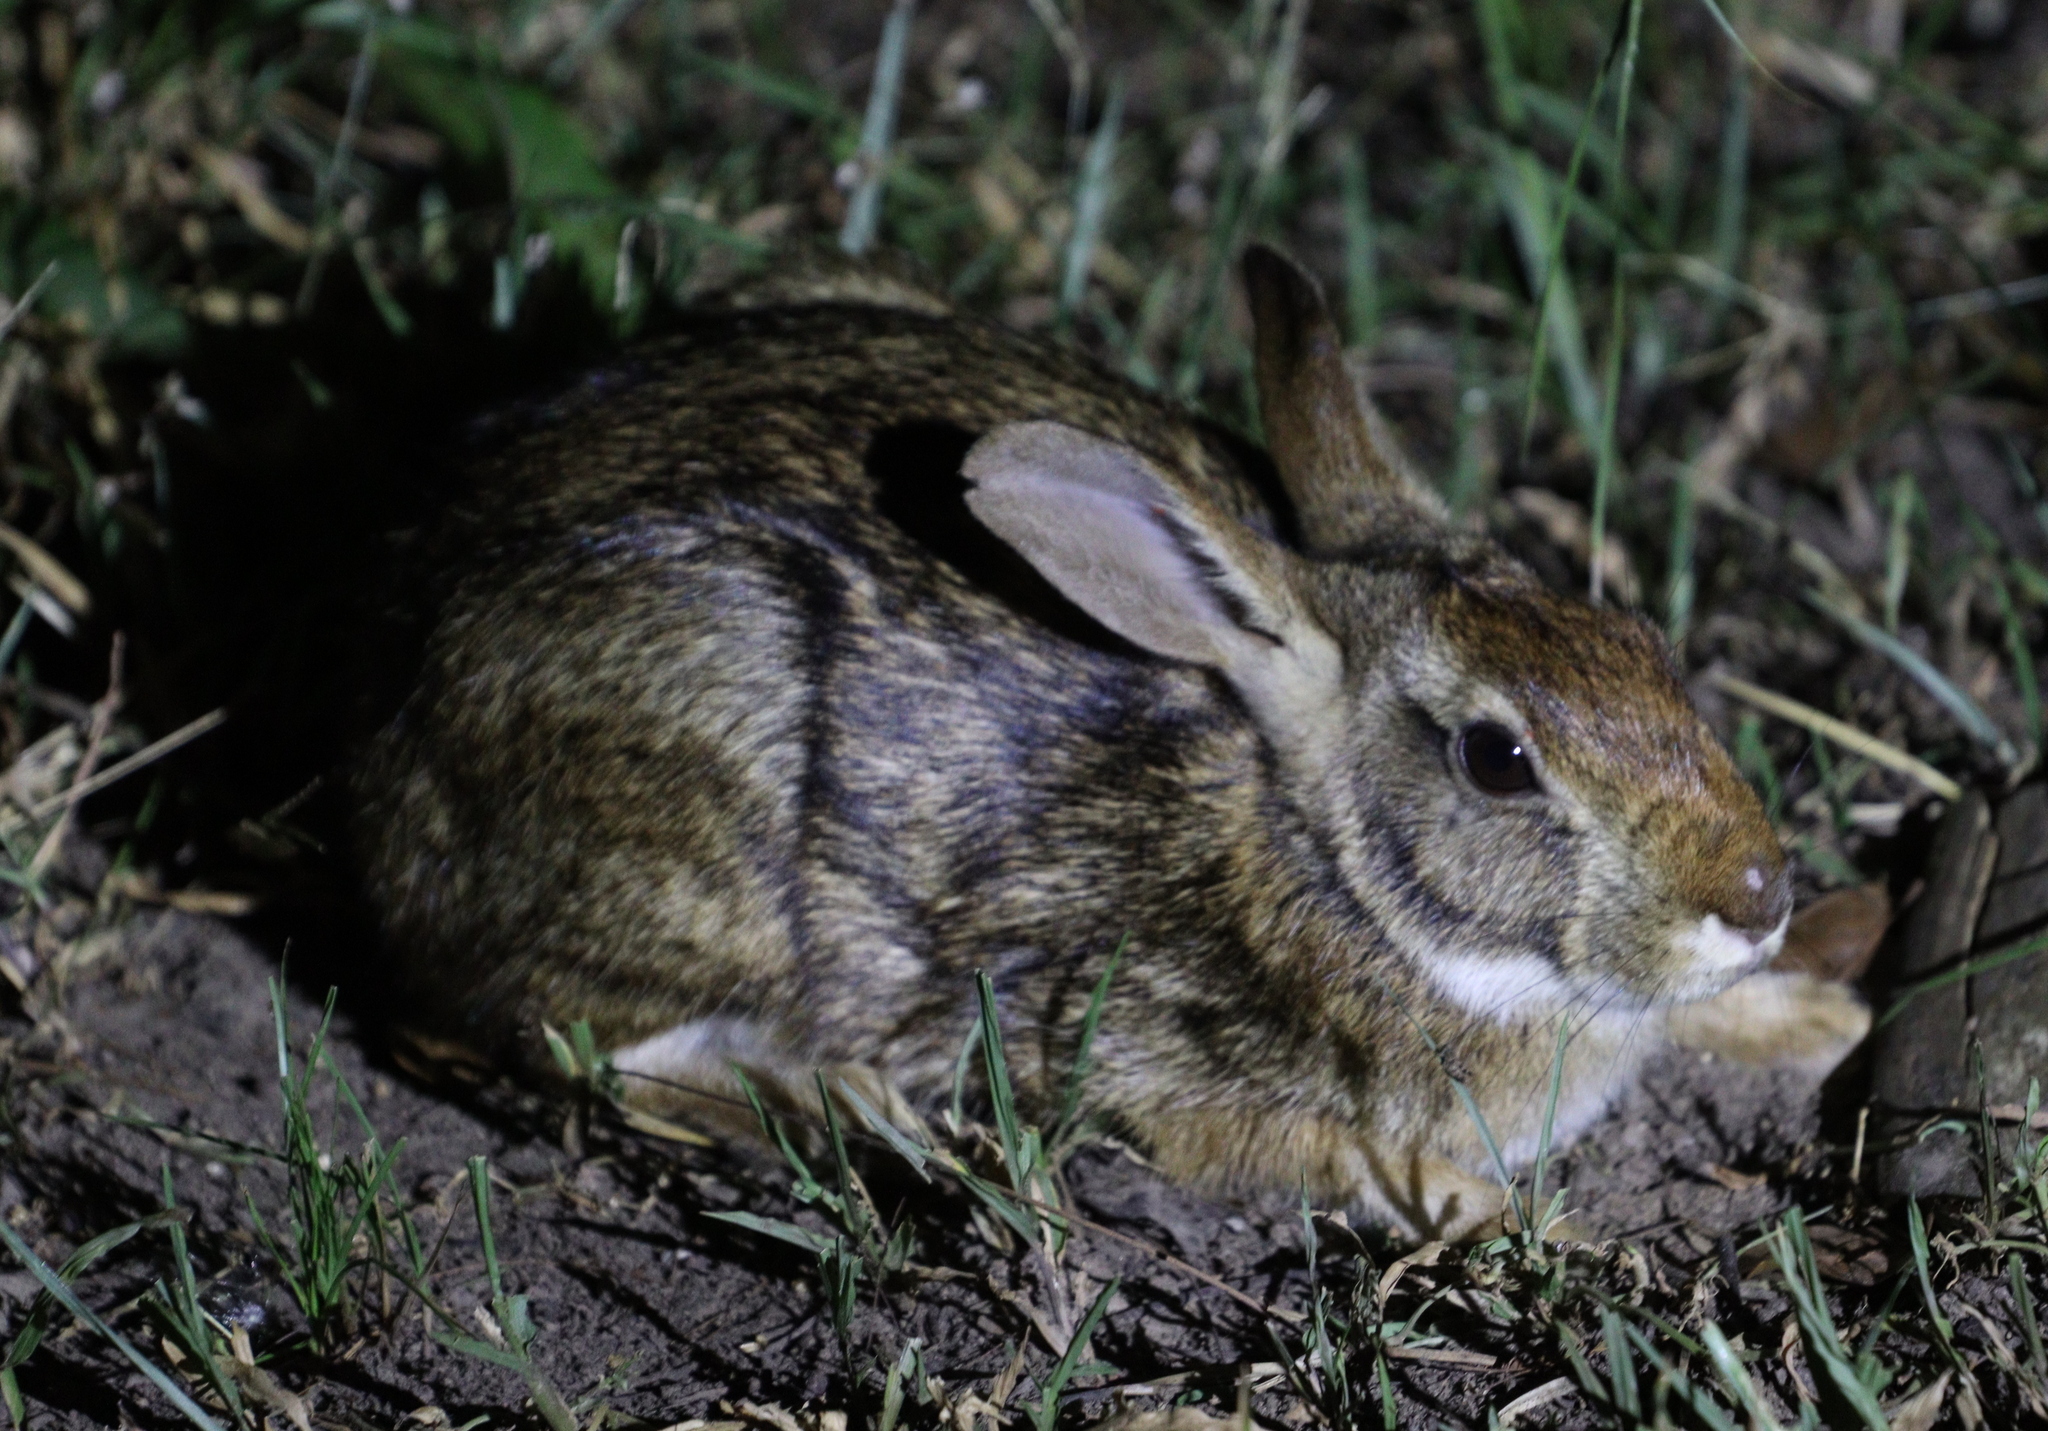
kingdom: Animalia
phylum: Chordata
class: Mammalia
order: Lagomorpha
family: Leporidae
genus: Sylvilagus
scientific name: Sylvilagus brasiliensis
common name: Tapeti
